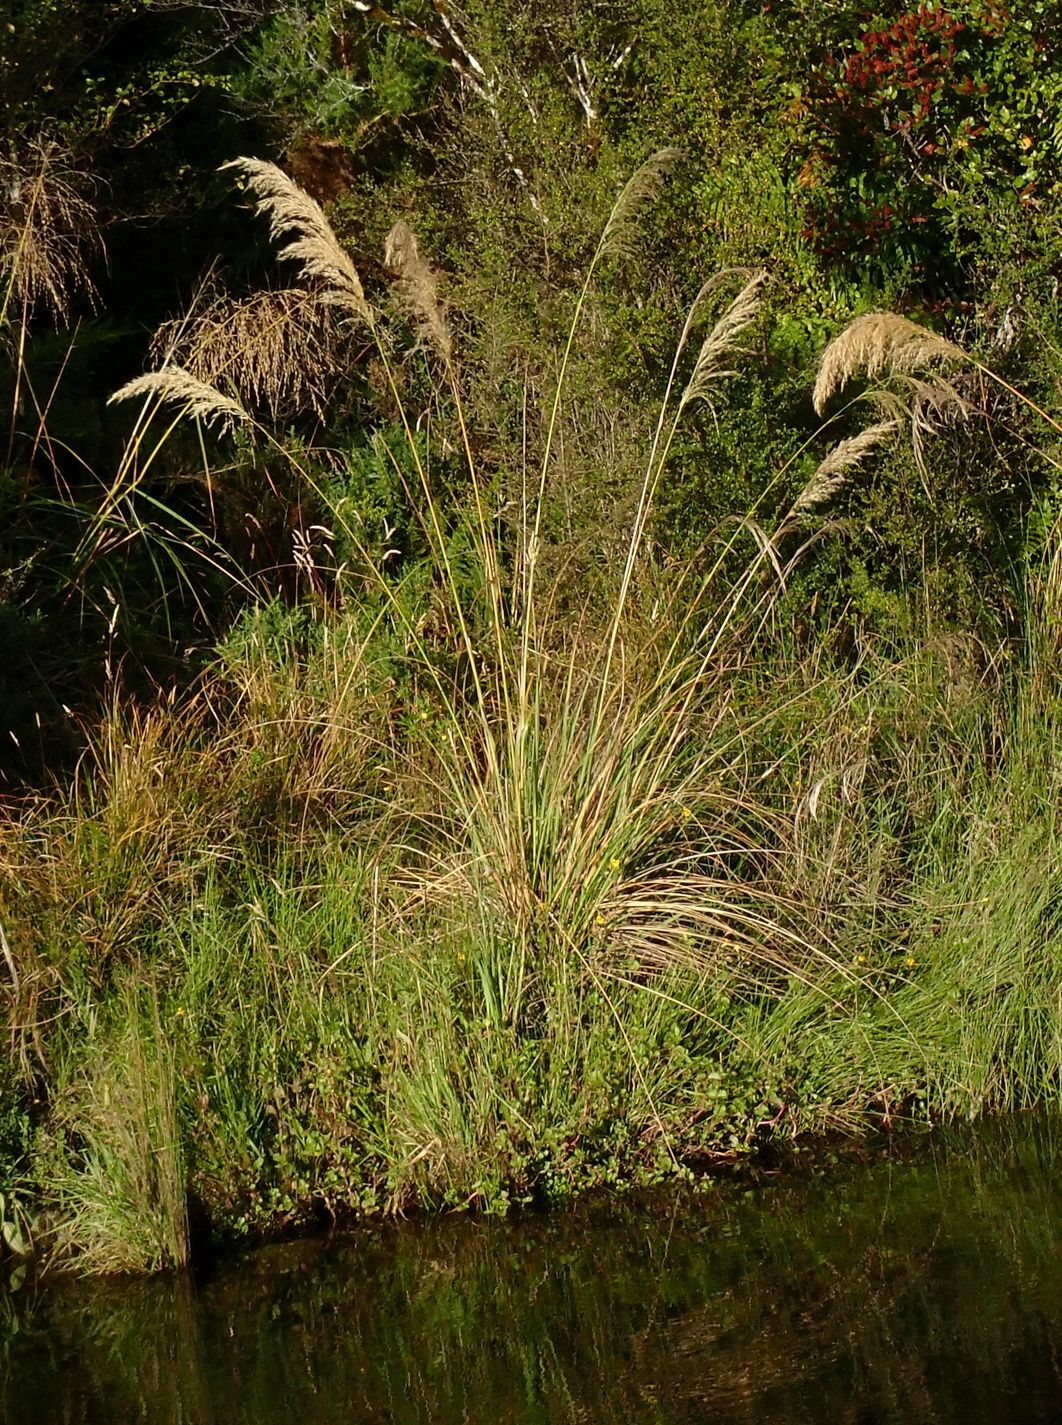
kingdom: Plantae
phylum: Tracheophyta
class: Liliopsida
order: Poales
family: Poaceae
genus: Austroderia
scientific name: Austroderia richardii
